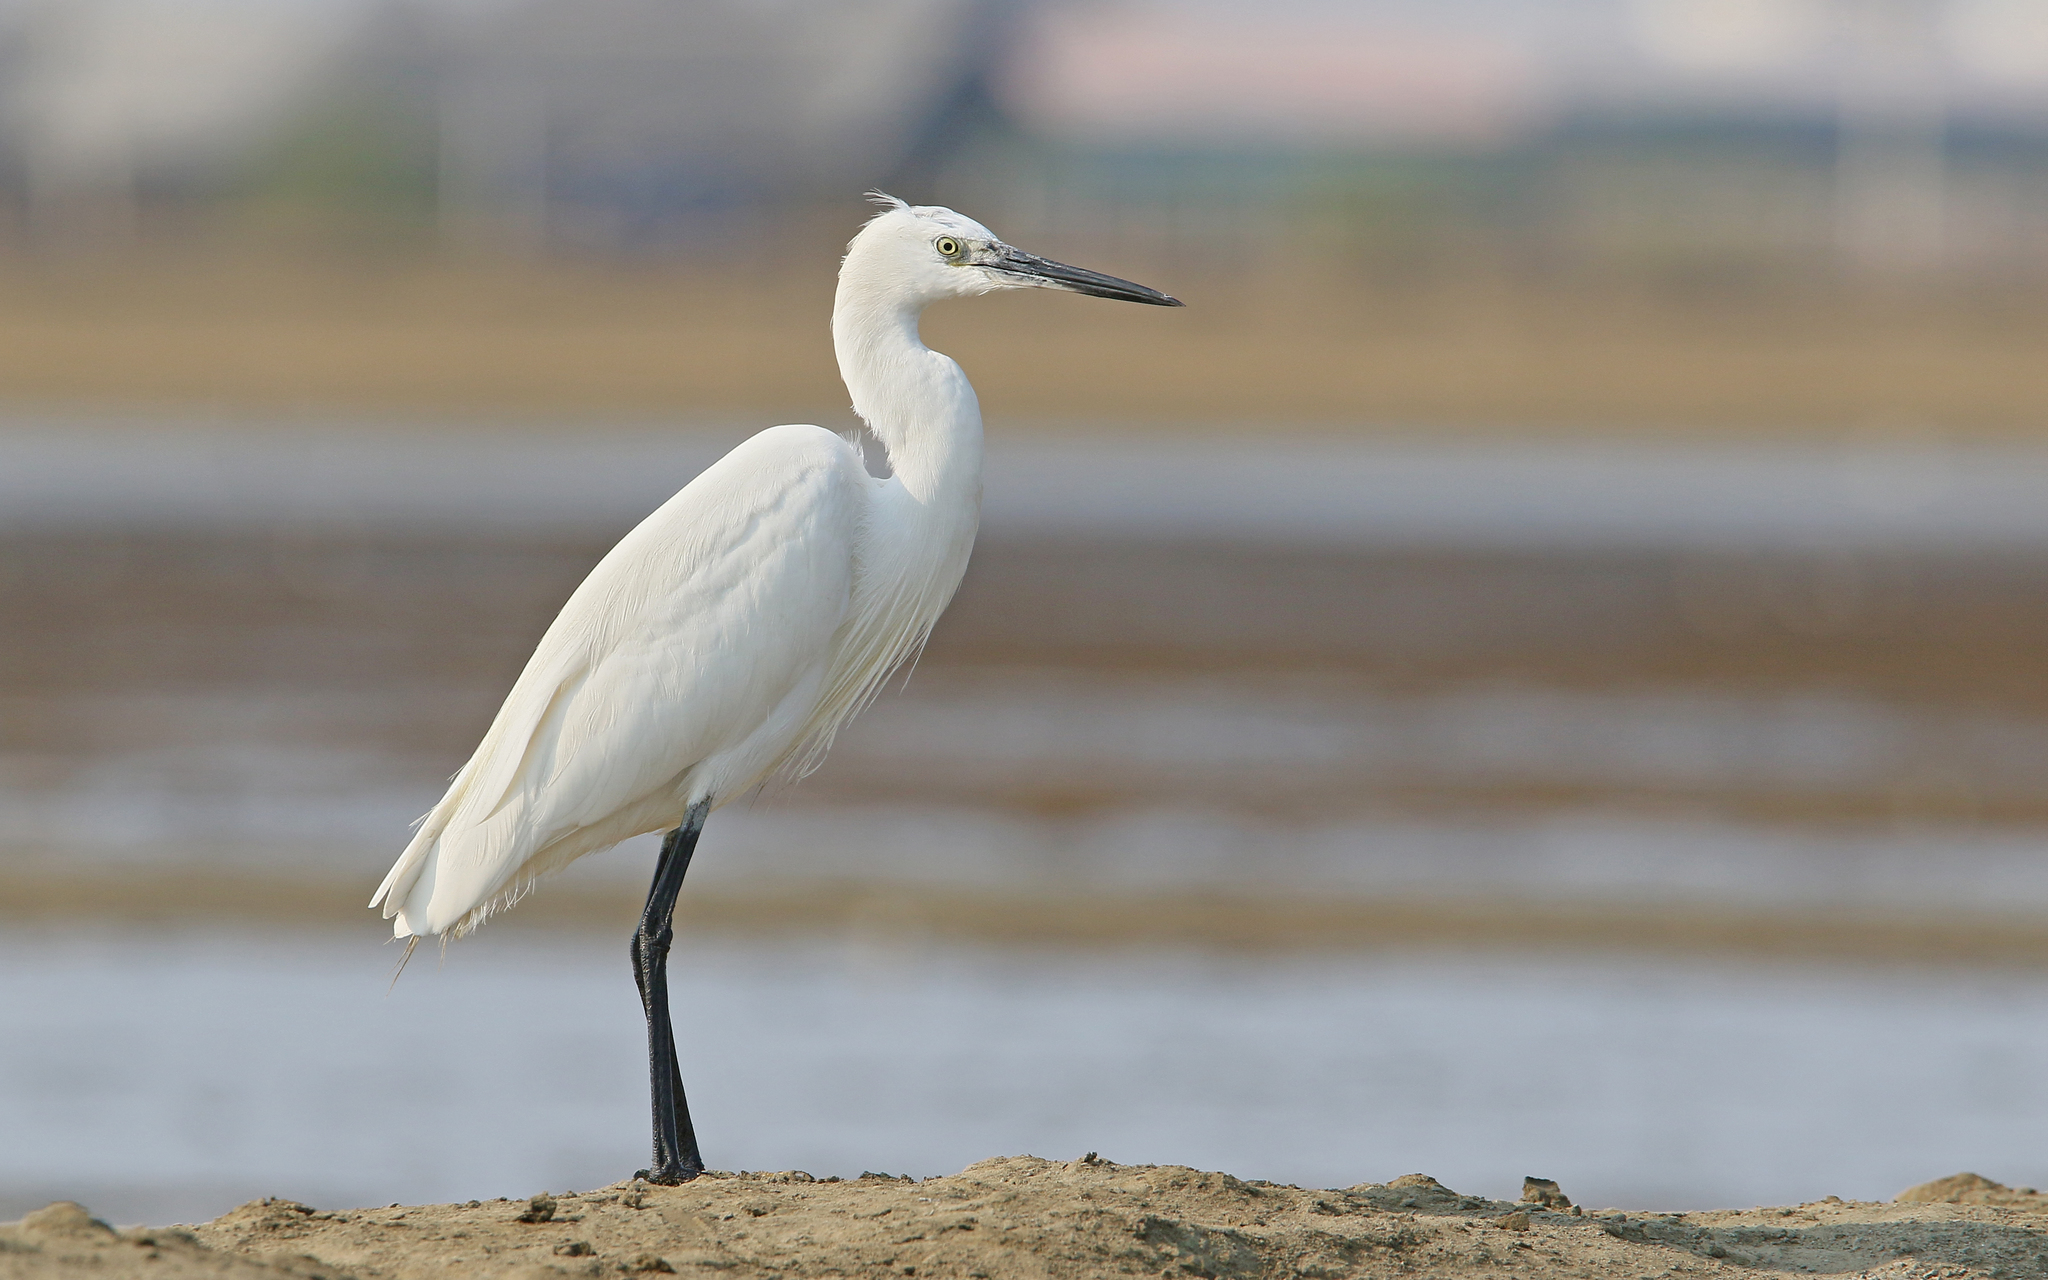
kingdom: Animalia
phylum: Chordata
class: Aves
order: Pelecaniformes
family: Ardeidae
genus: Egretta
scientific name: Egretta garzetta
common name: Little egret
